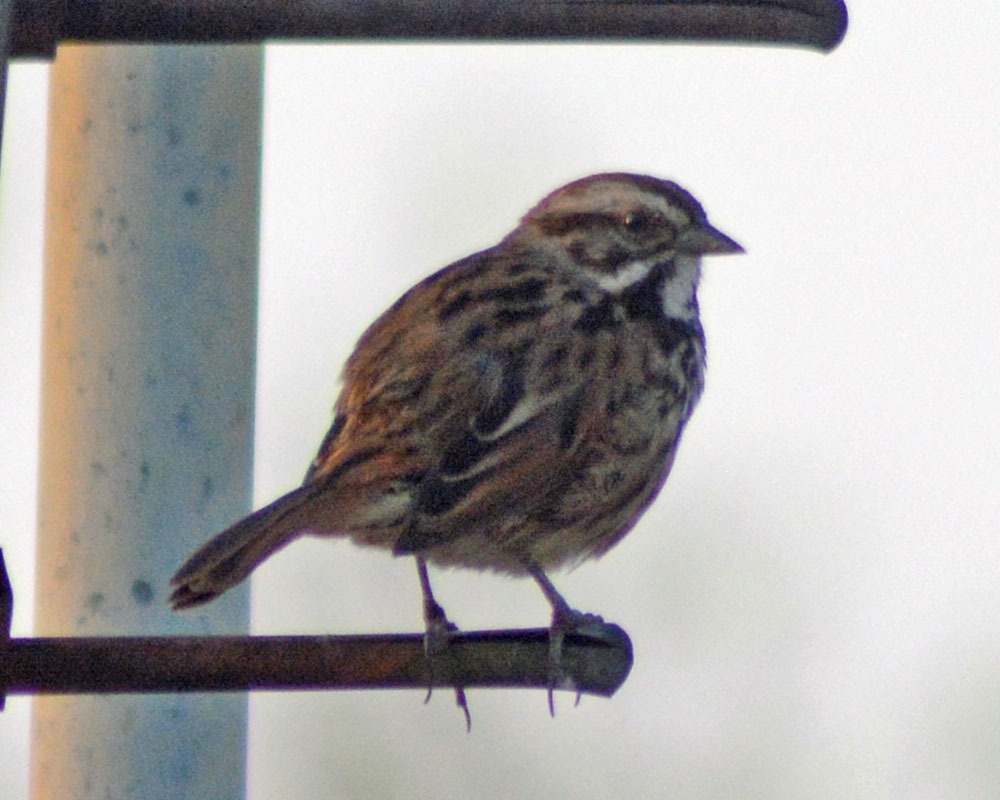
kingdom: Animalia
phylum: Chordata
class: Aves
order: Passeriformes
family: Passerellidae
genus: Melospiza
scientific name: Melospiza melodia
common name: Song sparrow
